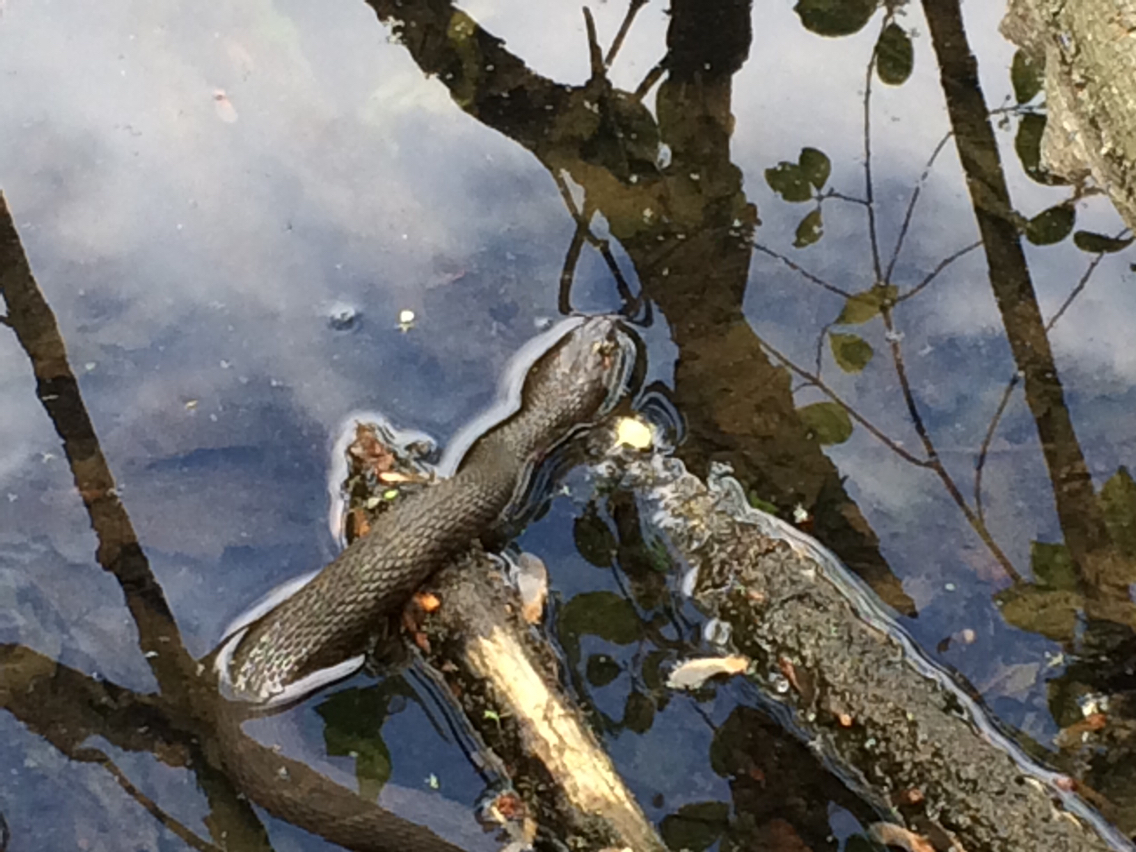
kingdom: Animalia
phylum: Chordata
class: Squamata
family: Colubridae
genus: Nerodia
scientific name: Nerodia sipedon
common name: Northern water snake
